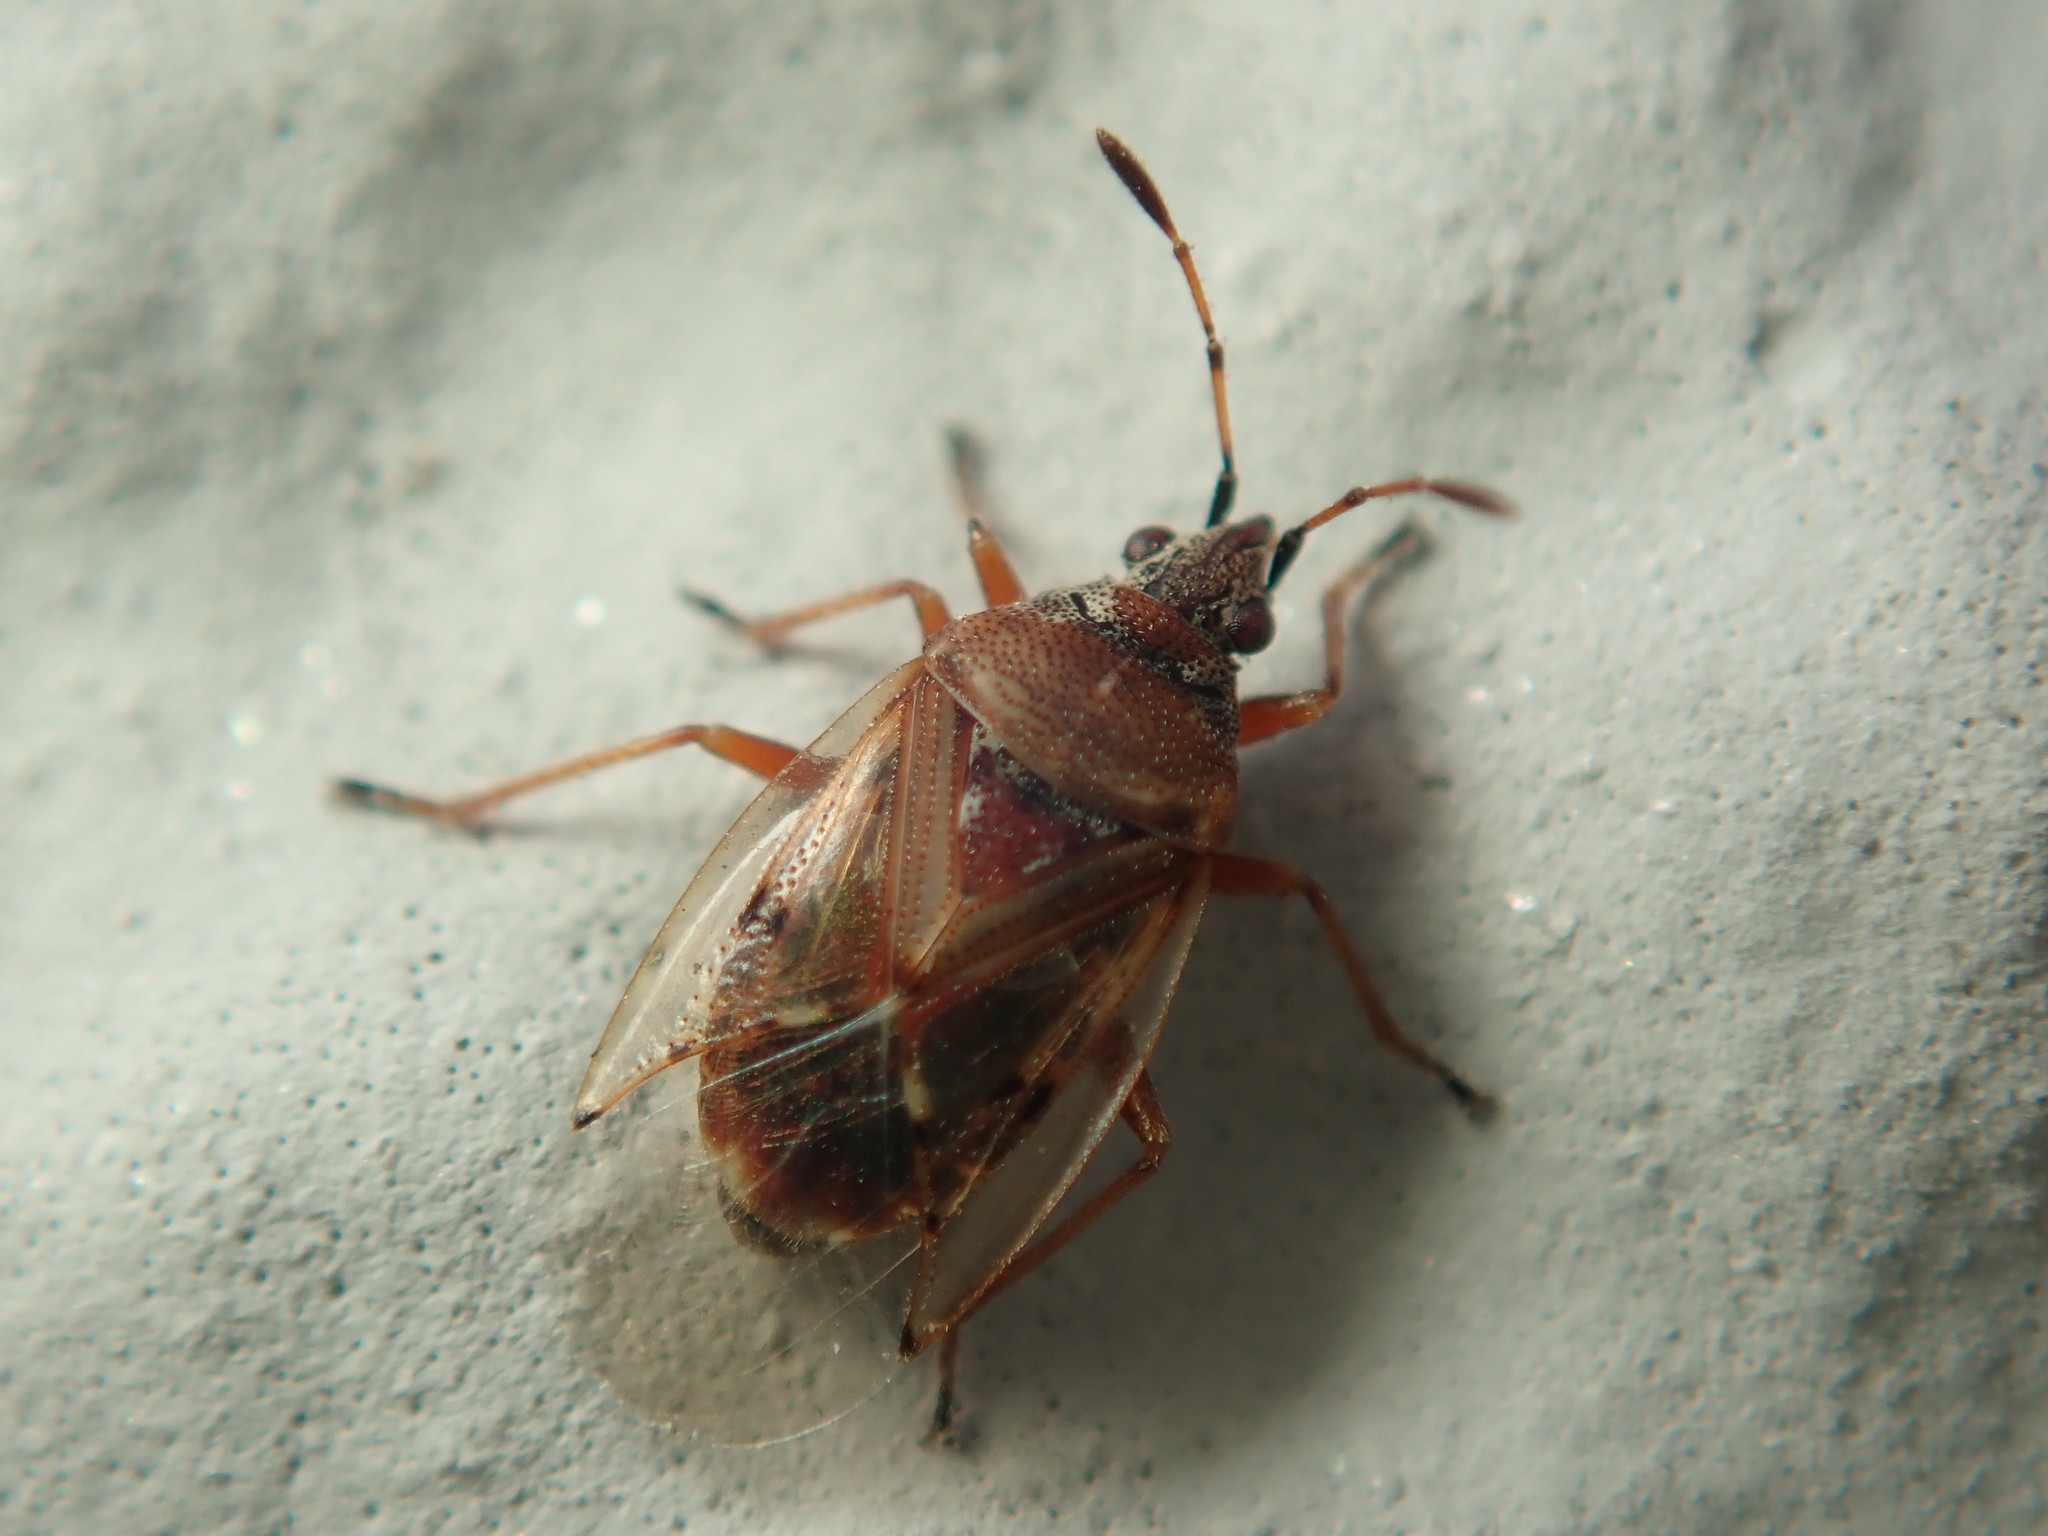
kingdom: Animalia
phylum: Arthropoda
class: Insecta
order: Hemiptera
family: Lygaeidae
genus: Kleidocerys
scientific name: Kleidocerys resedae
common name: Birch catkin bug
